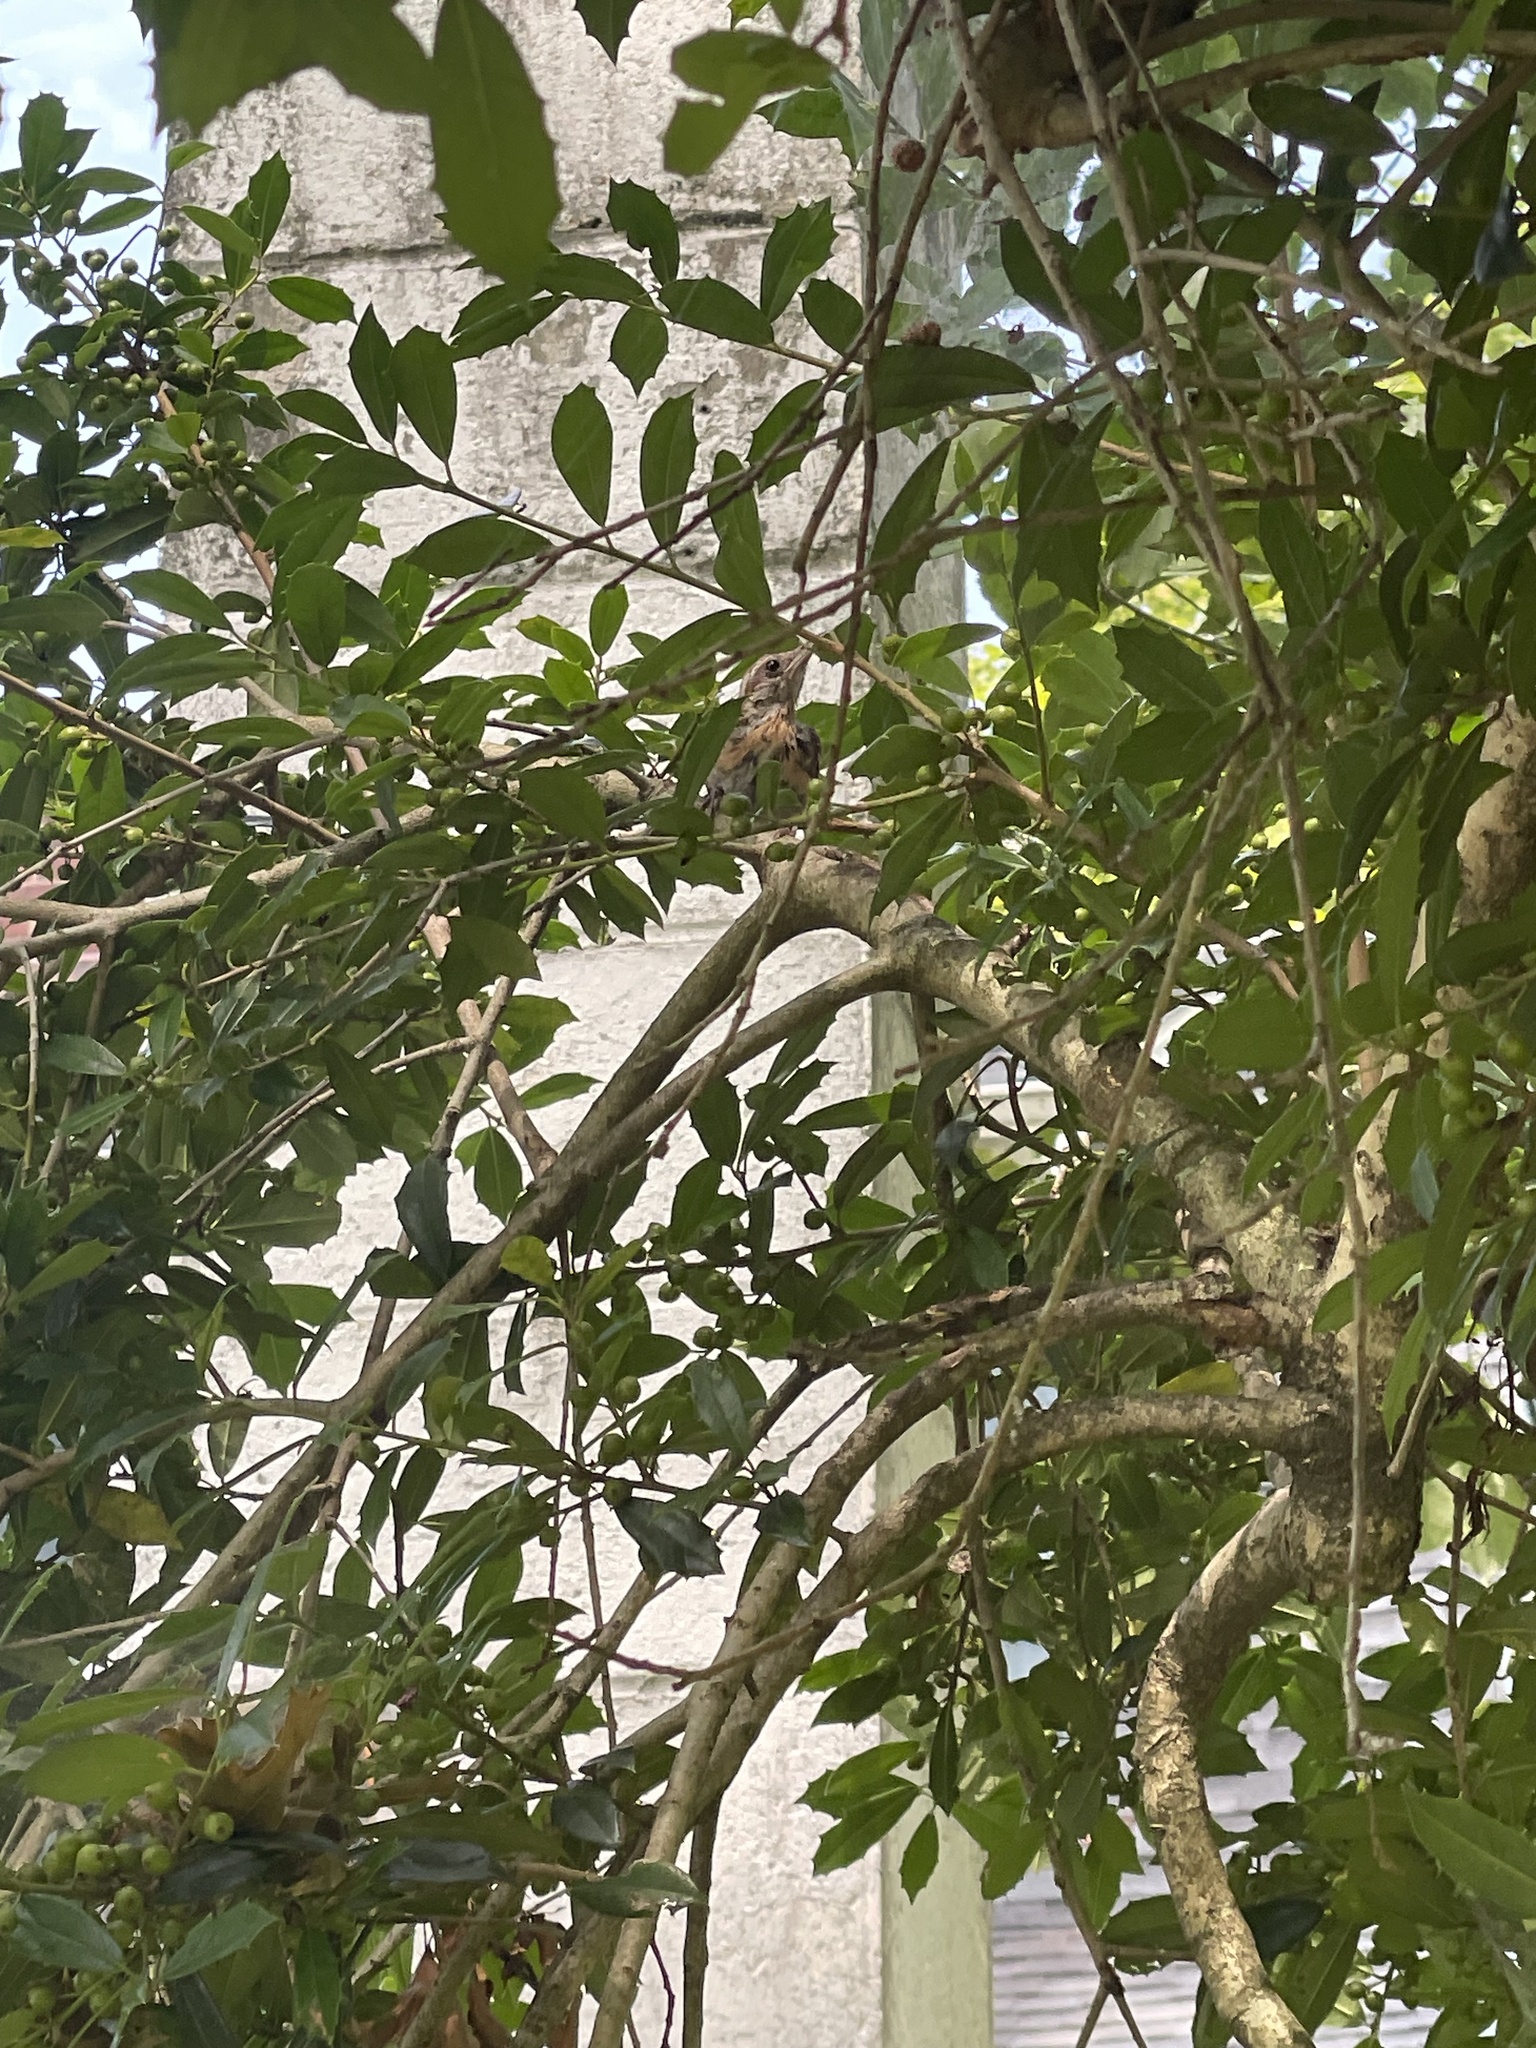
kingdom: Animalia
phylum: Chordata
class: Aves
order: Passeriformes
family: Troglodytidae
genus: Thryothorus
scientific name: Thryothorus ludovicianus
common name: Carolina wren
